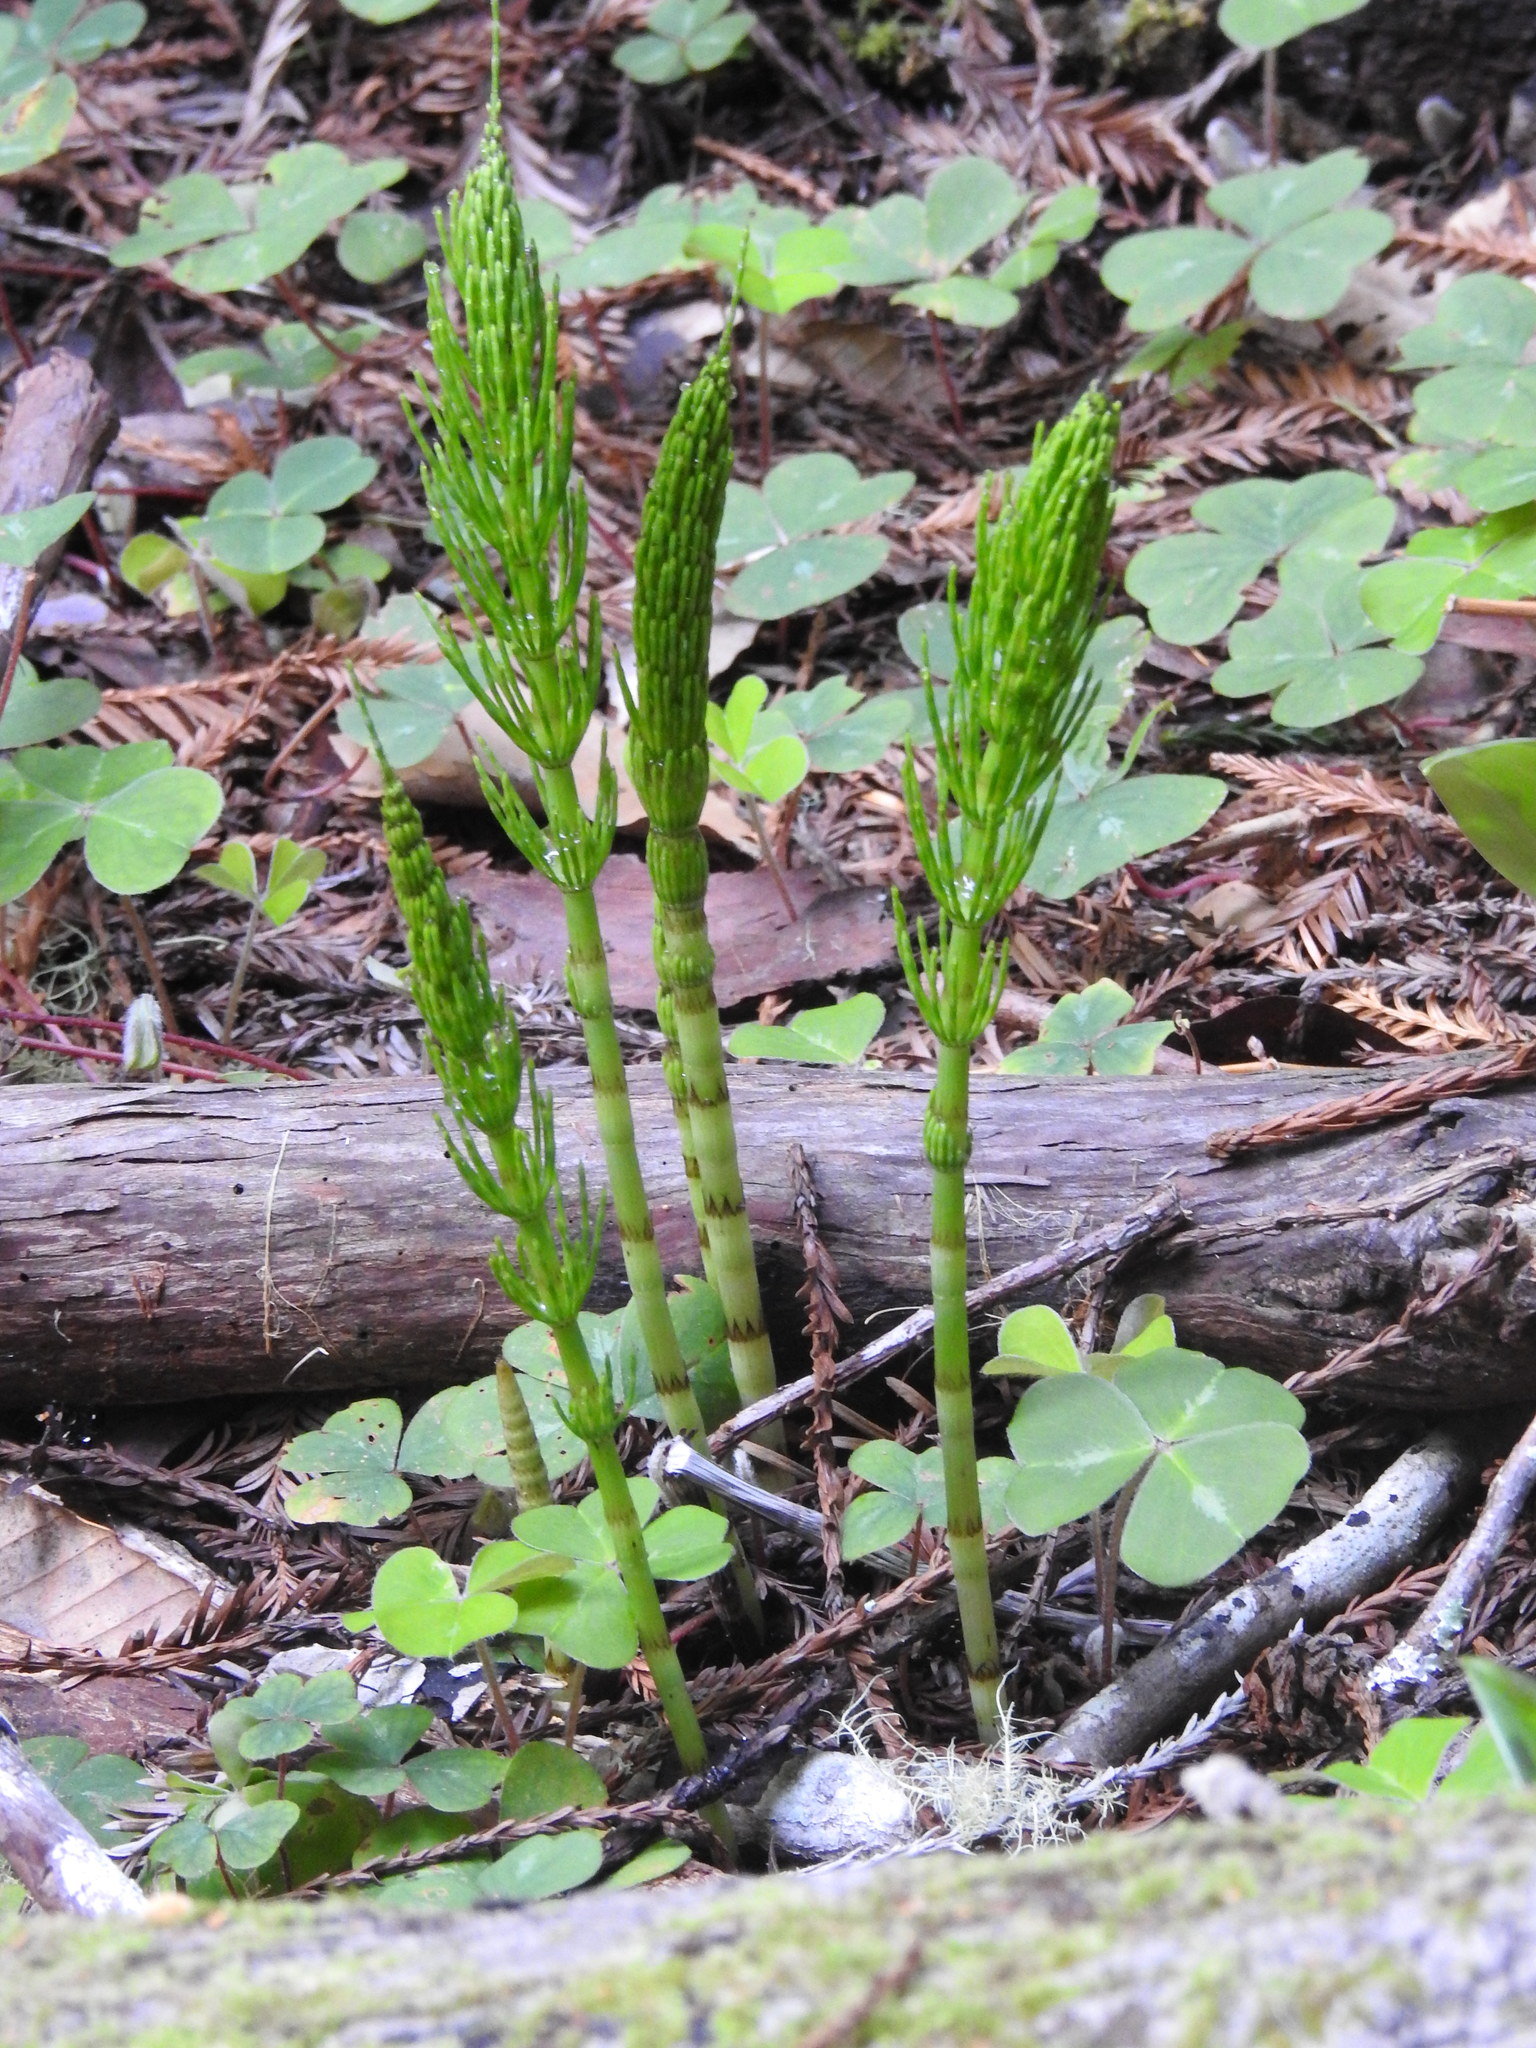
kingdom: Plantae
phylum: Tracheophyta
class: Polypodiopsida
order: Equisetales
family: Equisetaceae
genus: Equisetum
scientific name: Equisetum braunii
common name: Braun's horsetail
